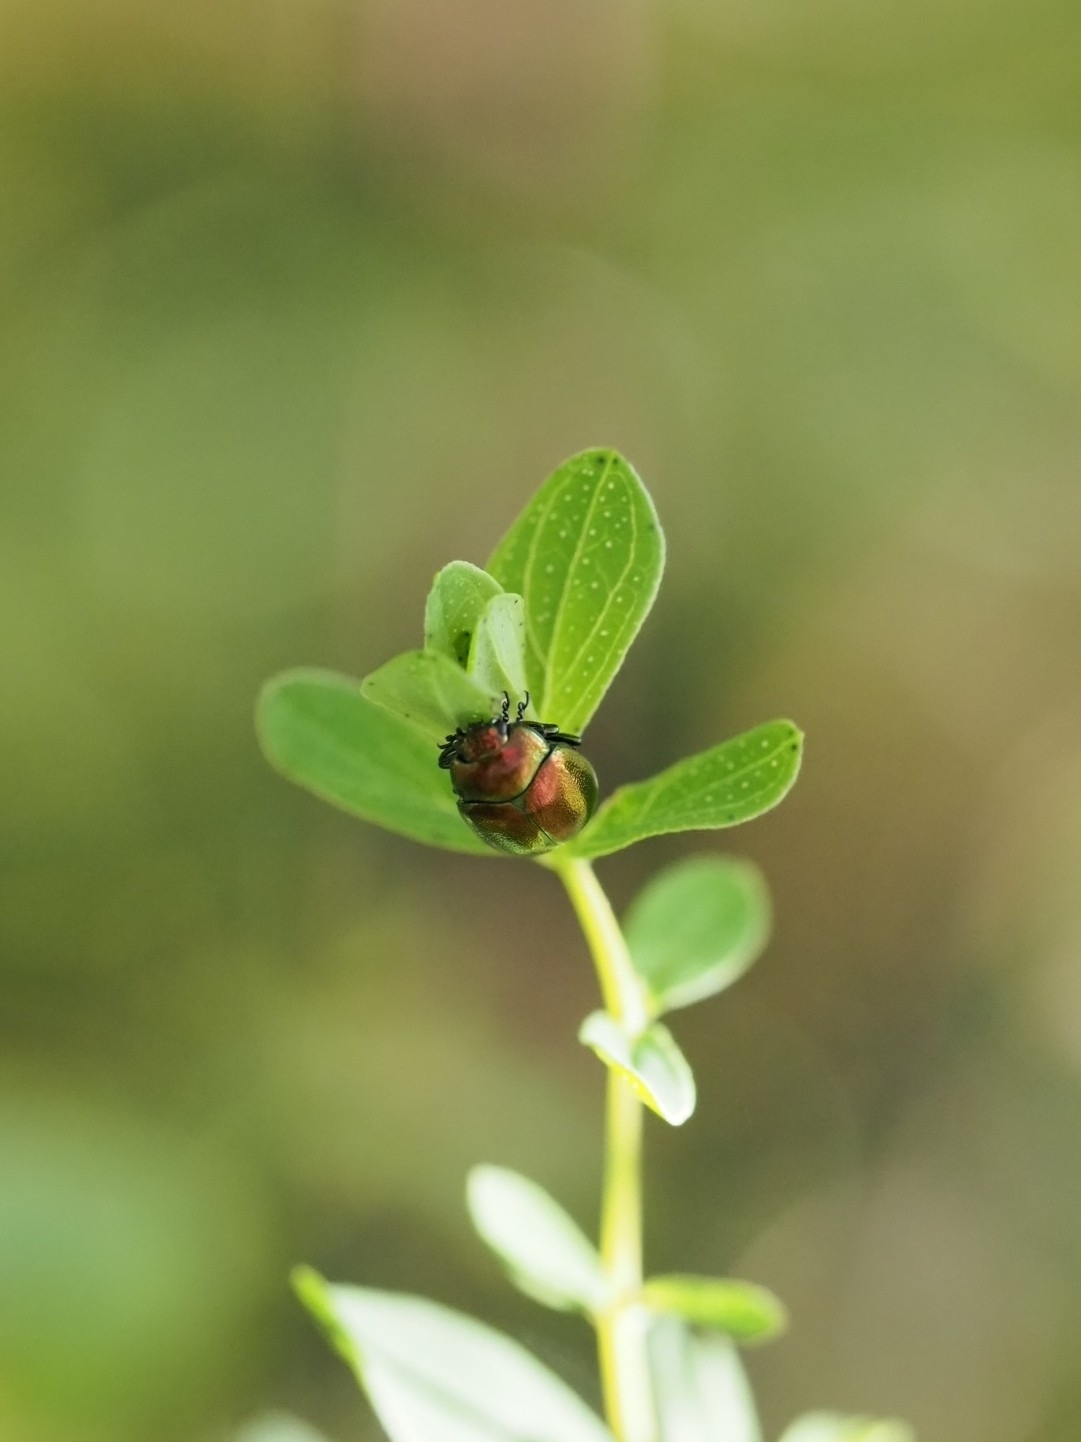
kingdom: Animalia
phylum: Arthropoda
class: Insecta
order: Coleoptera
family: Chrysomelidae
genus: Chrysolina
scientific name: Chrysolina varians
